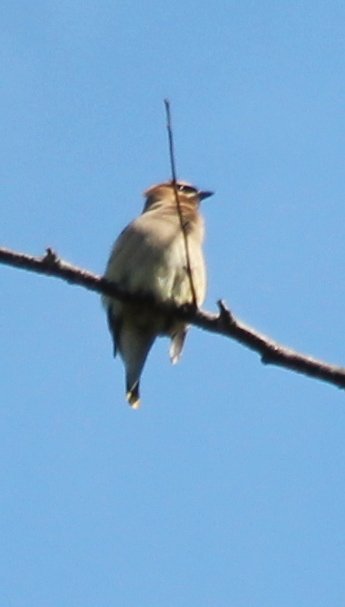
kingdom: Animalia
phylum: Chordata
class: Aves
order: Passeriformes
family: Bombycillidae
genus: Bombycilla
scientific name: Bombycilla cedrorum
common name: Cedar waxwing
